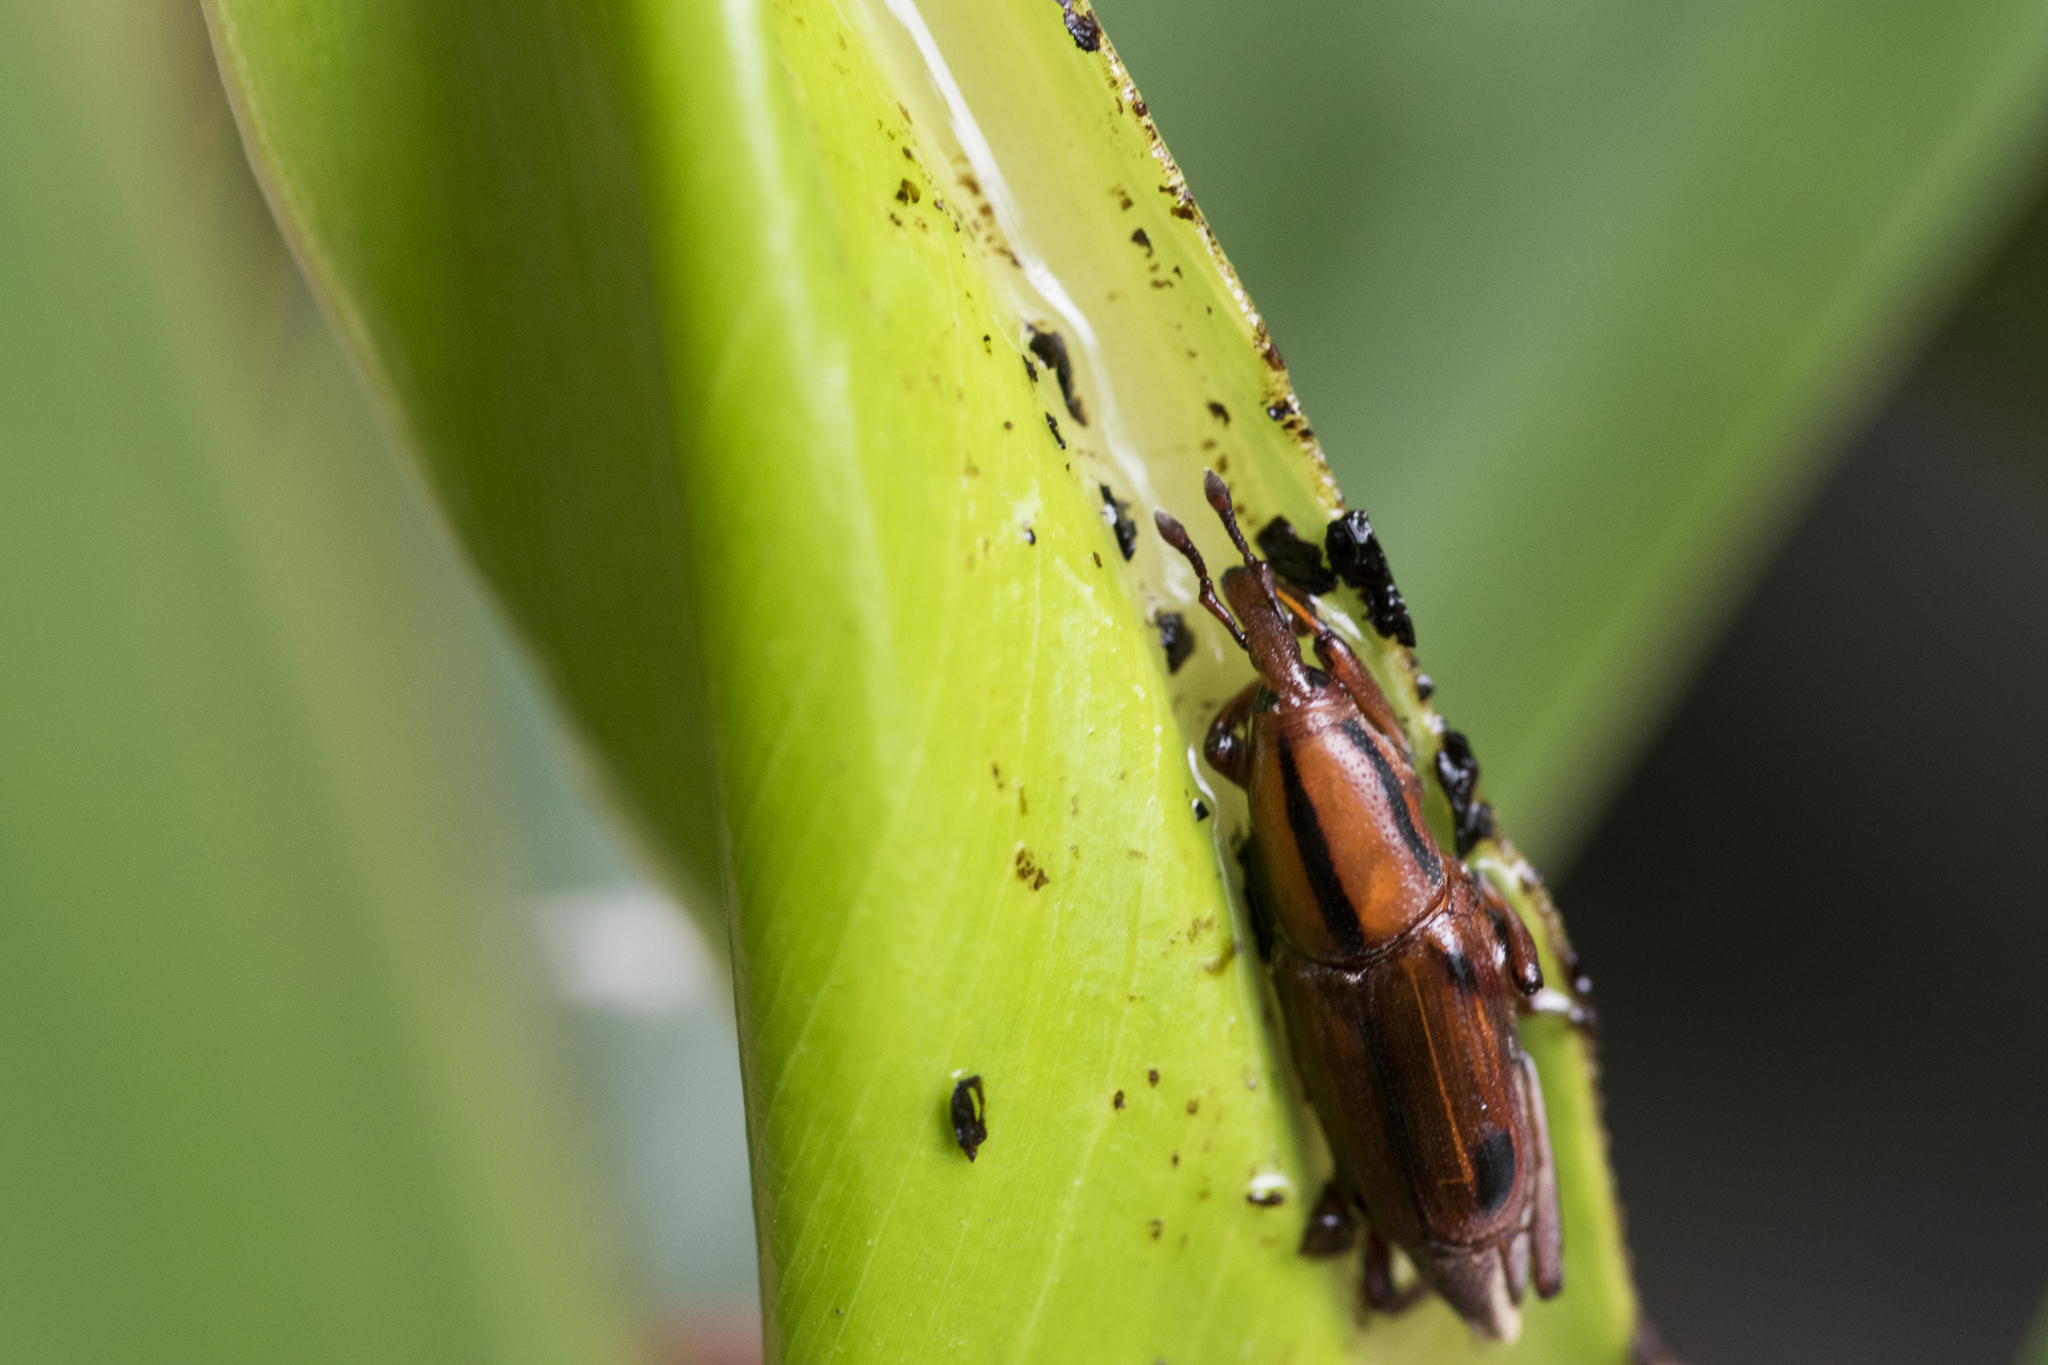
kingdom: Animalia
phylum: Arthropoda
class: Insecta
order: Coleoptera
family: Dryophthoridae
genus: Sphenocorynes
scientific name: Sphenocorynes kosempoensis
